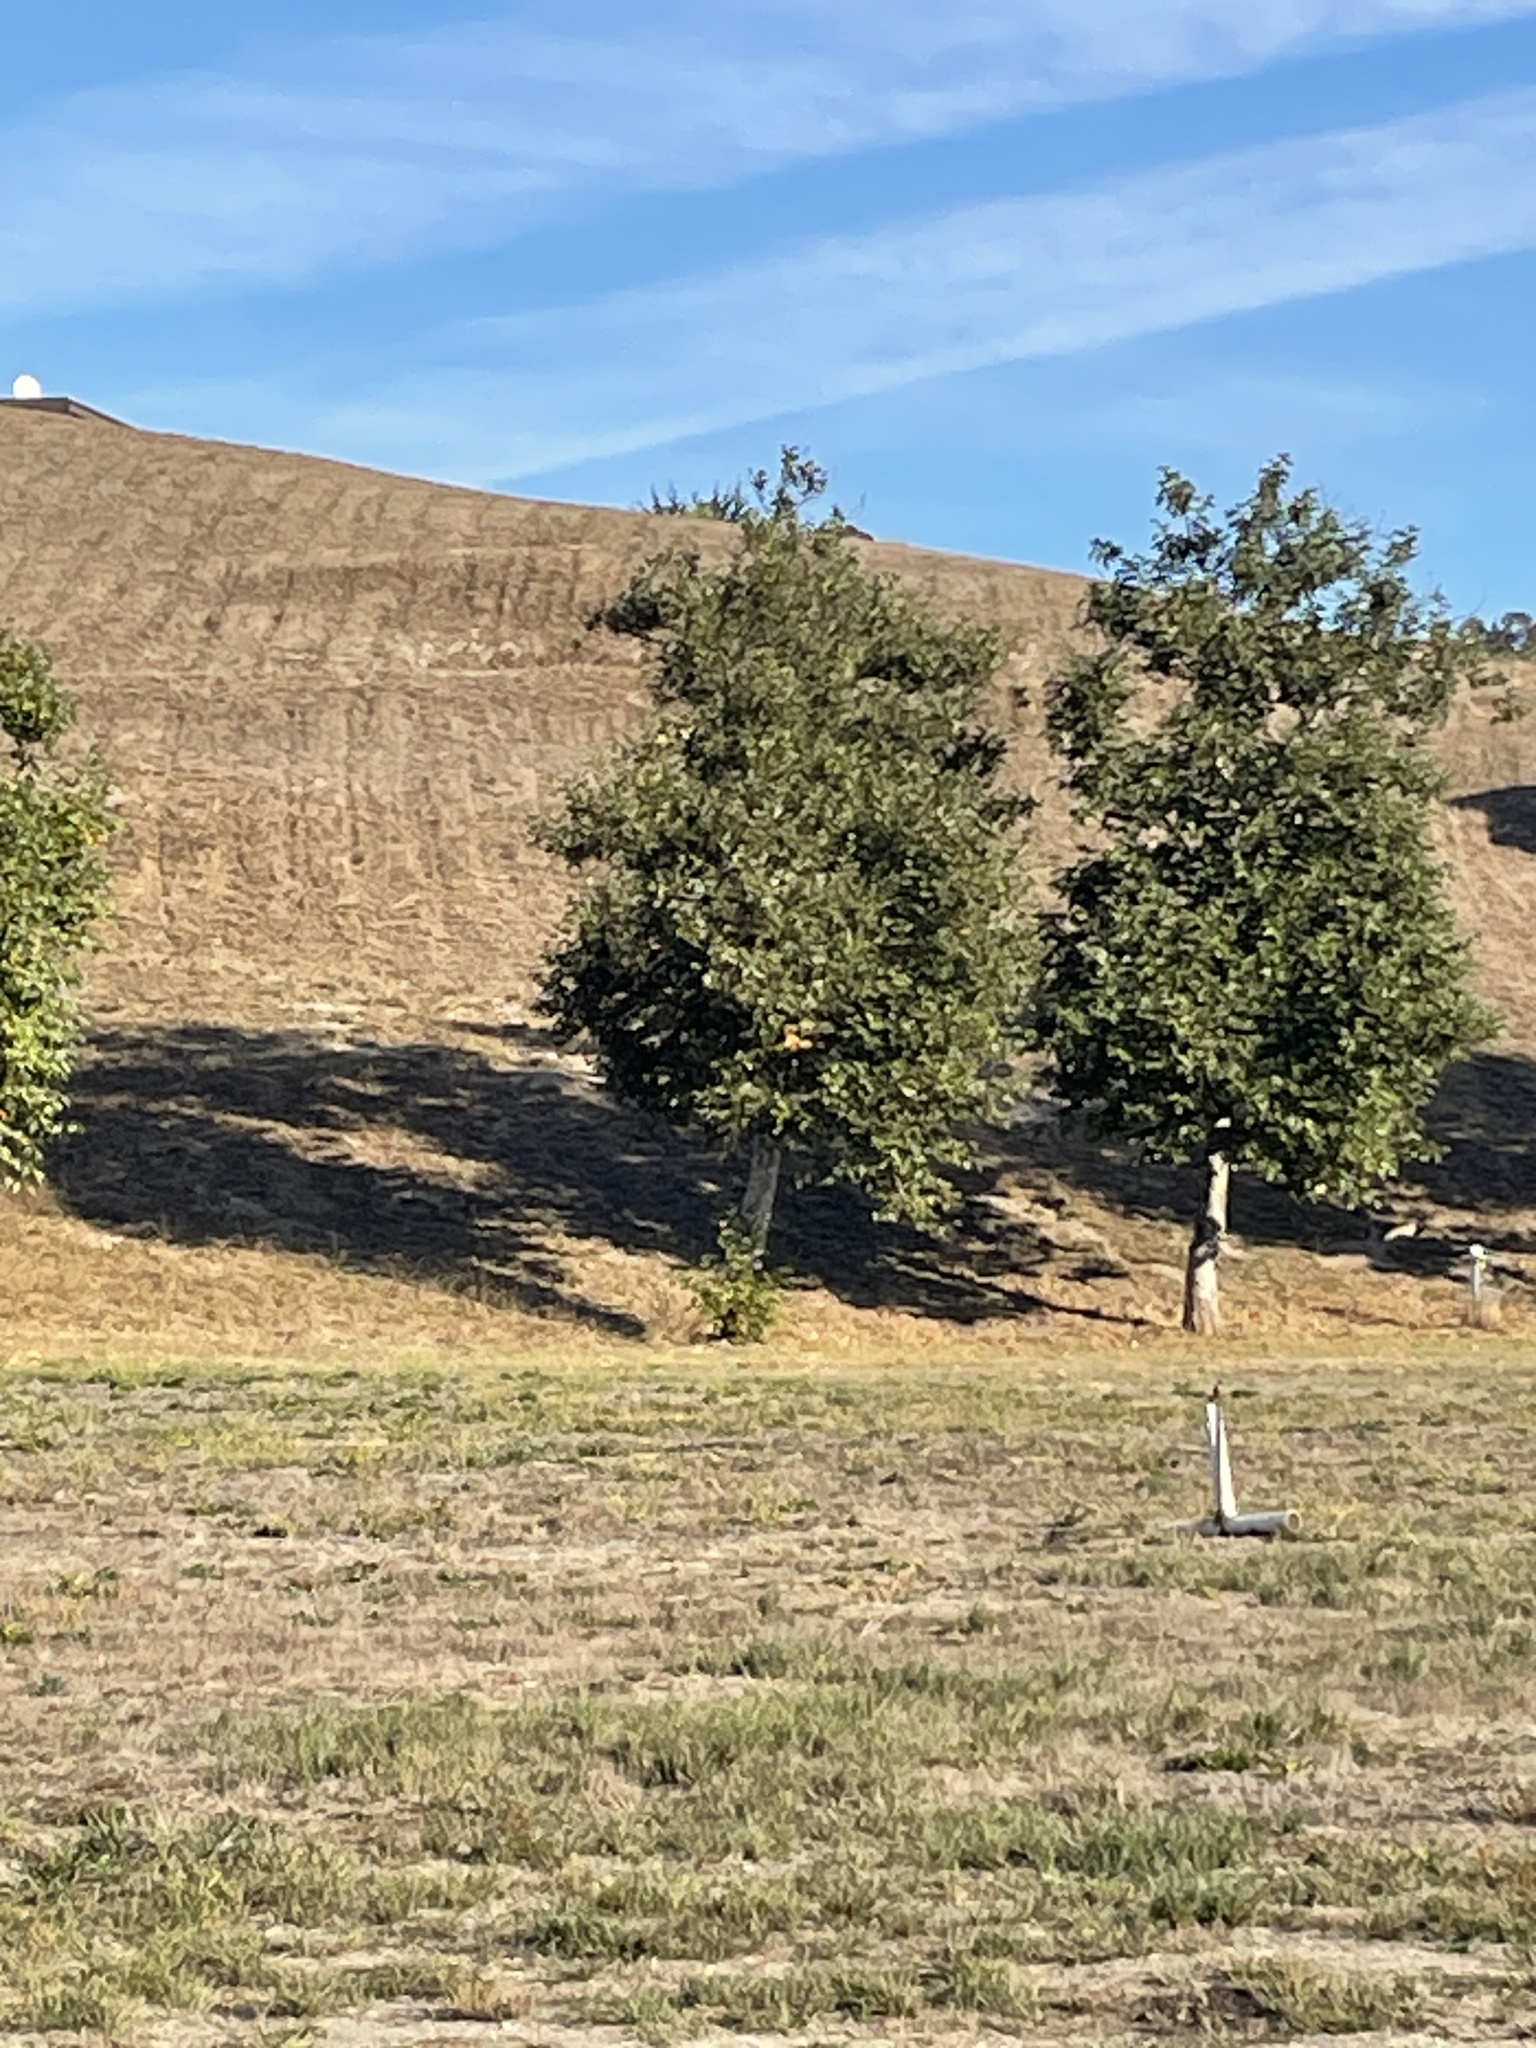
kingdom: Animalia
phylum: Chordata
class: Aves
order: Passeriformes
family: Tyrannidae
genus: Sayornis
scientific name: Sayornis saya
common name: Say's phoebe
